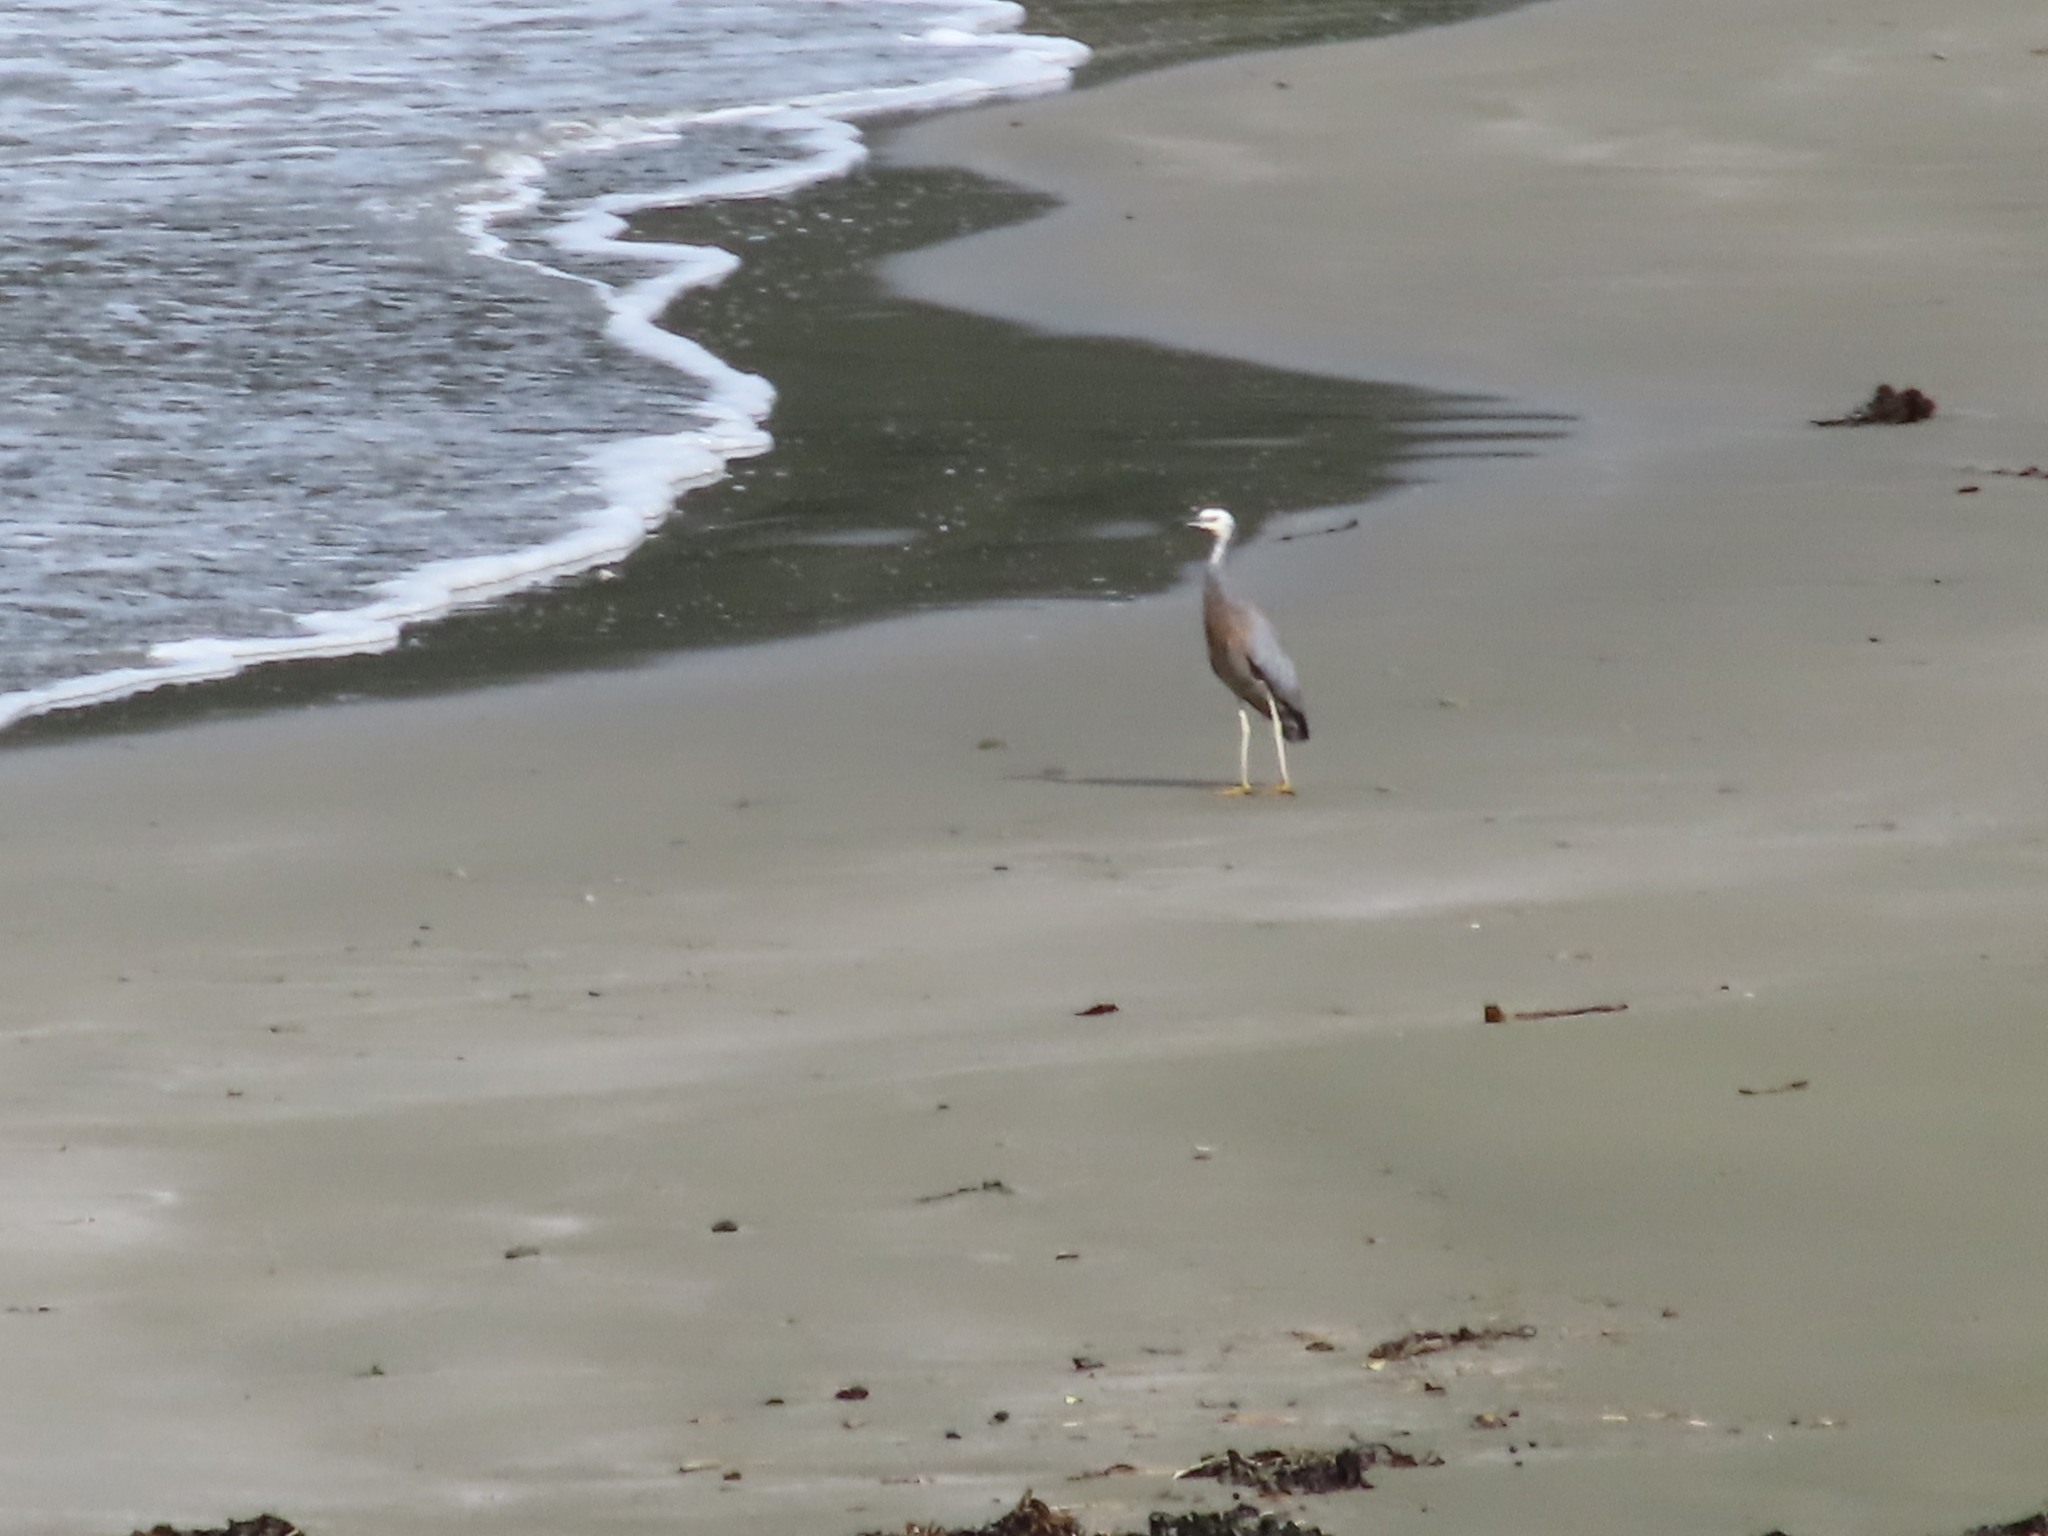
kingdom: Animalia
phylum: Chordata
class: Aves
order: Pelecaniformes
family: Ardeidae
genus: Egretta
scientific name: Egretta novaehollandiae
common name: White-faced heron
